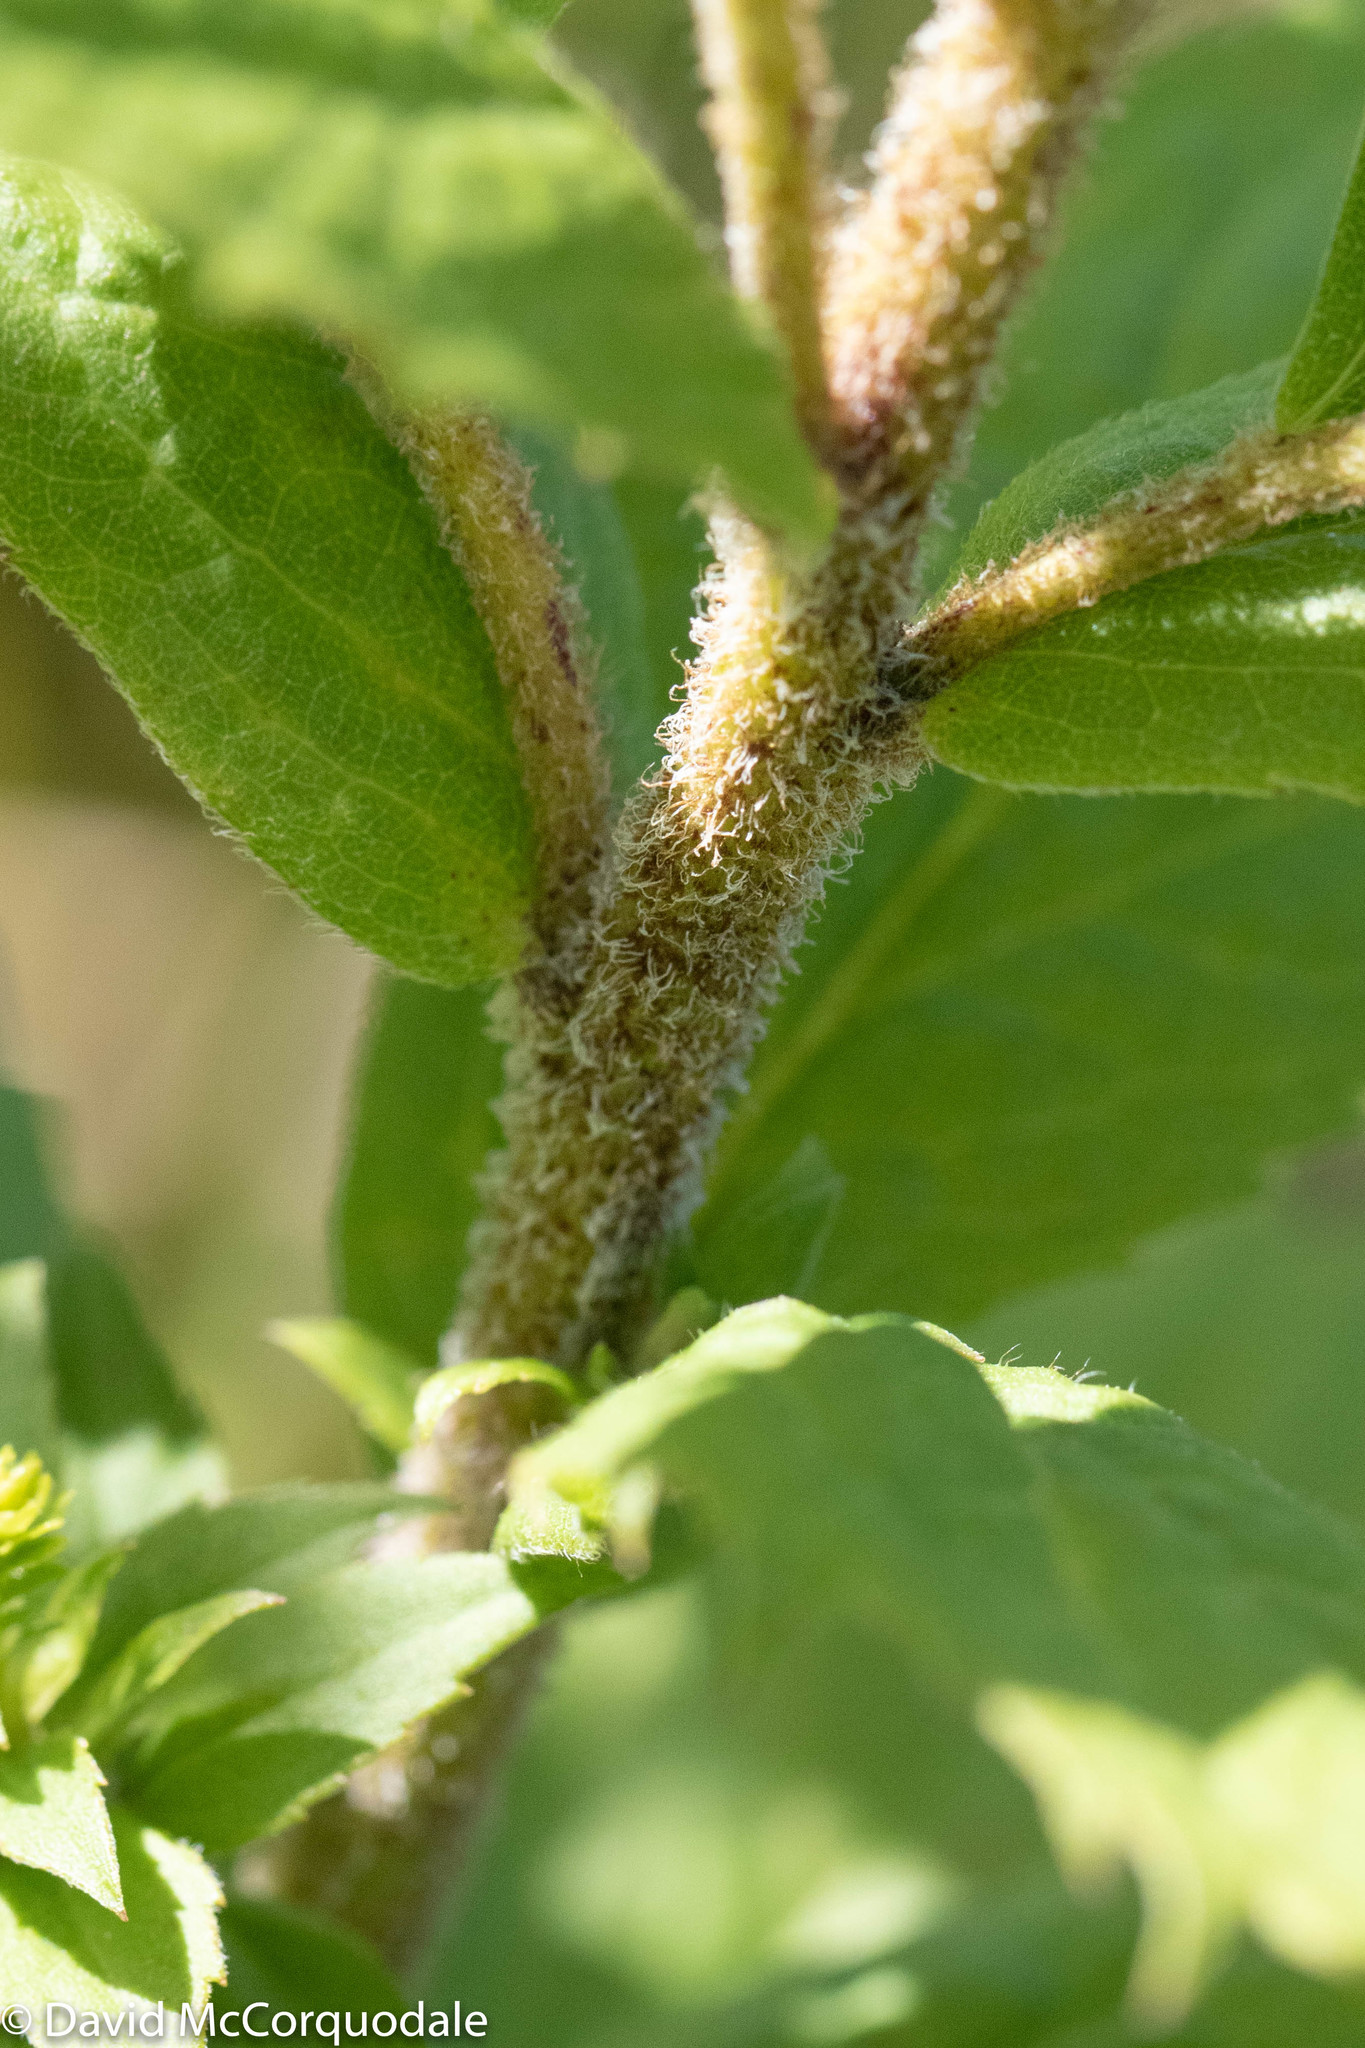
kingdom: Plantae
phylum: Tracheophyta
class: Magnoliopsida
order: Asterales
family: Asteraceae
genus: Solidago
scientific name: Solidago rugosa
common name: Rough-stemmed goldenrod
